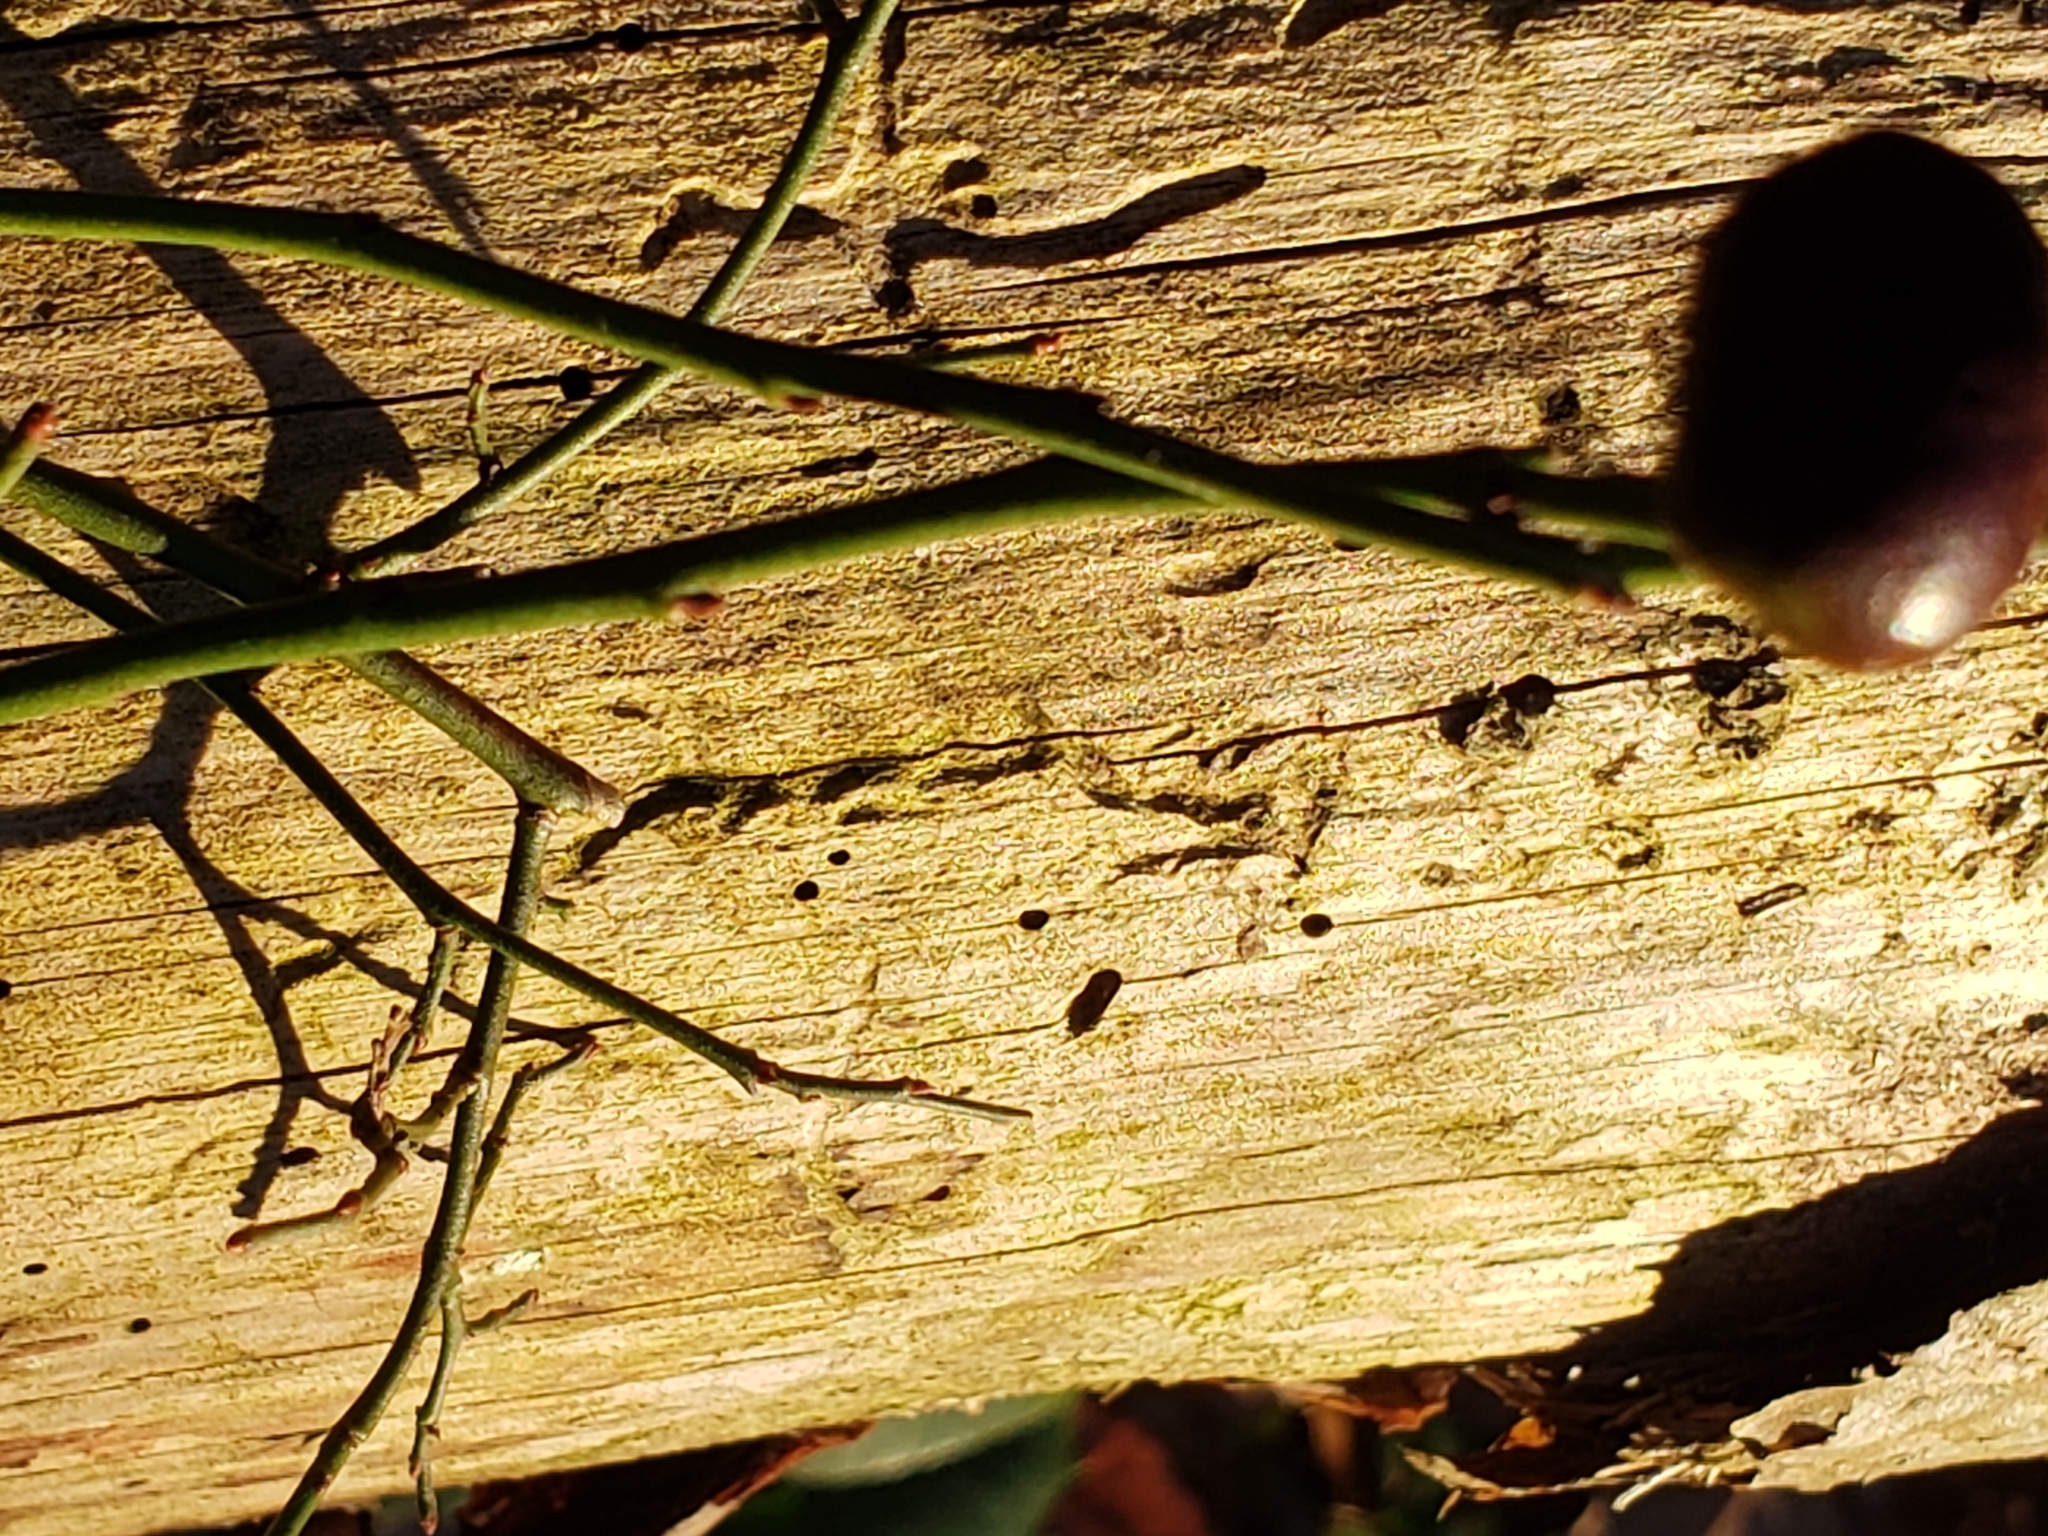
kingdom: Animalia
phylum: Arthropoda
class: Insecta
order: Hymenoptera
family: Pteromalidae
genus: Hemadas
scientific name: Hemadas nubilipennis
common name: Blueberry stem gall wasp
